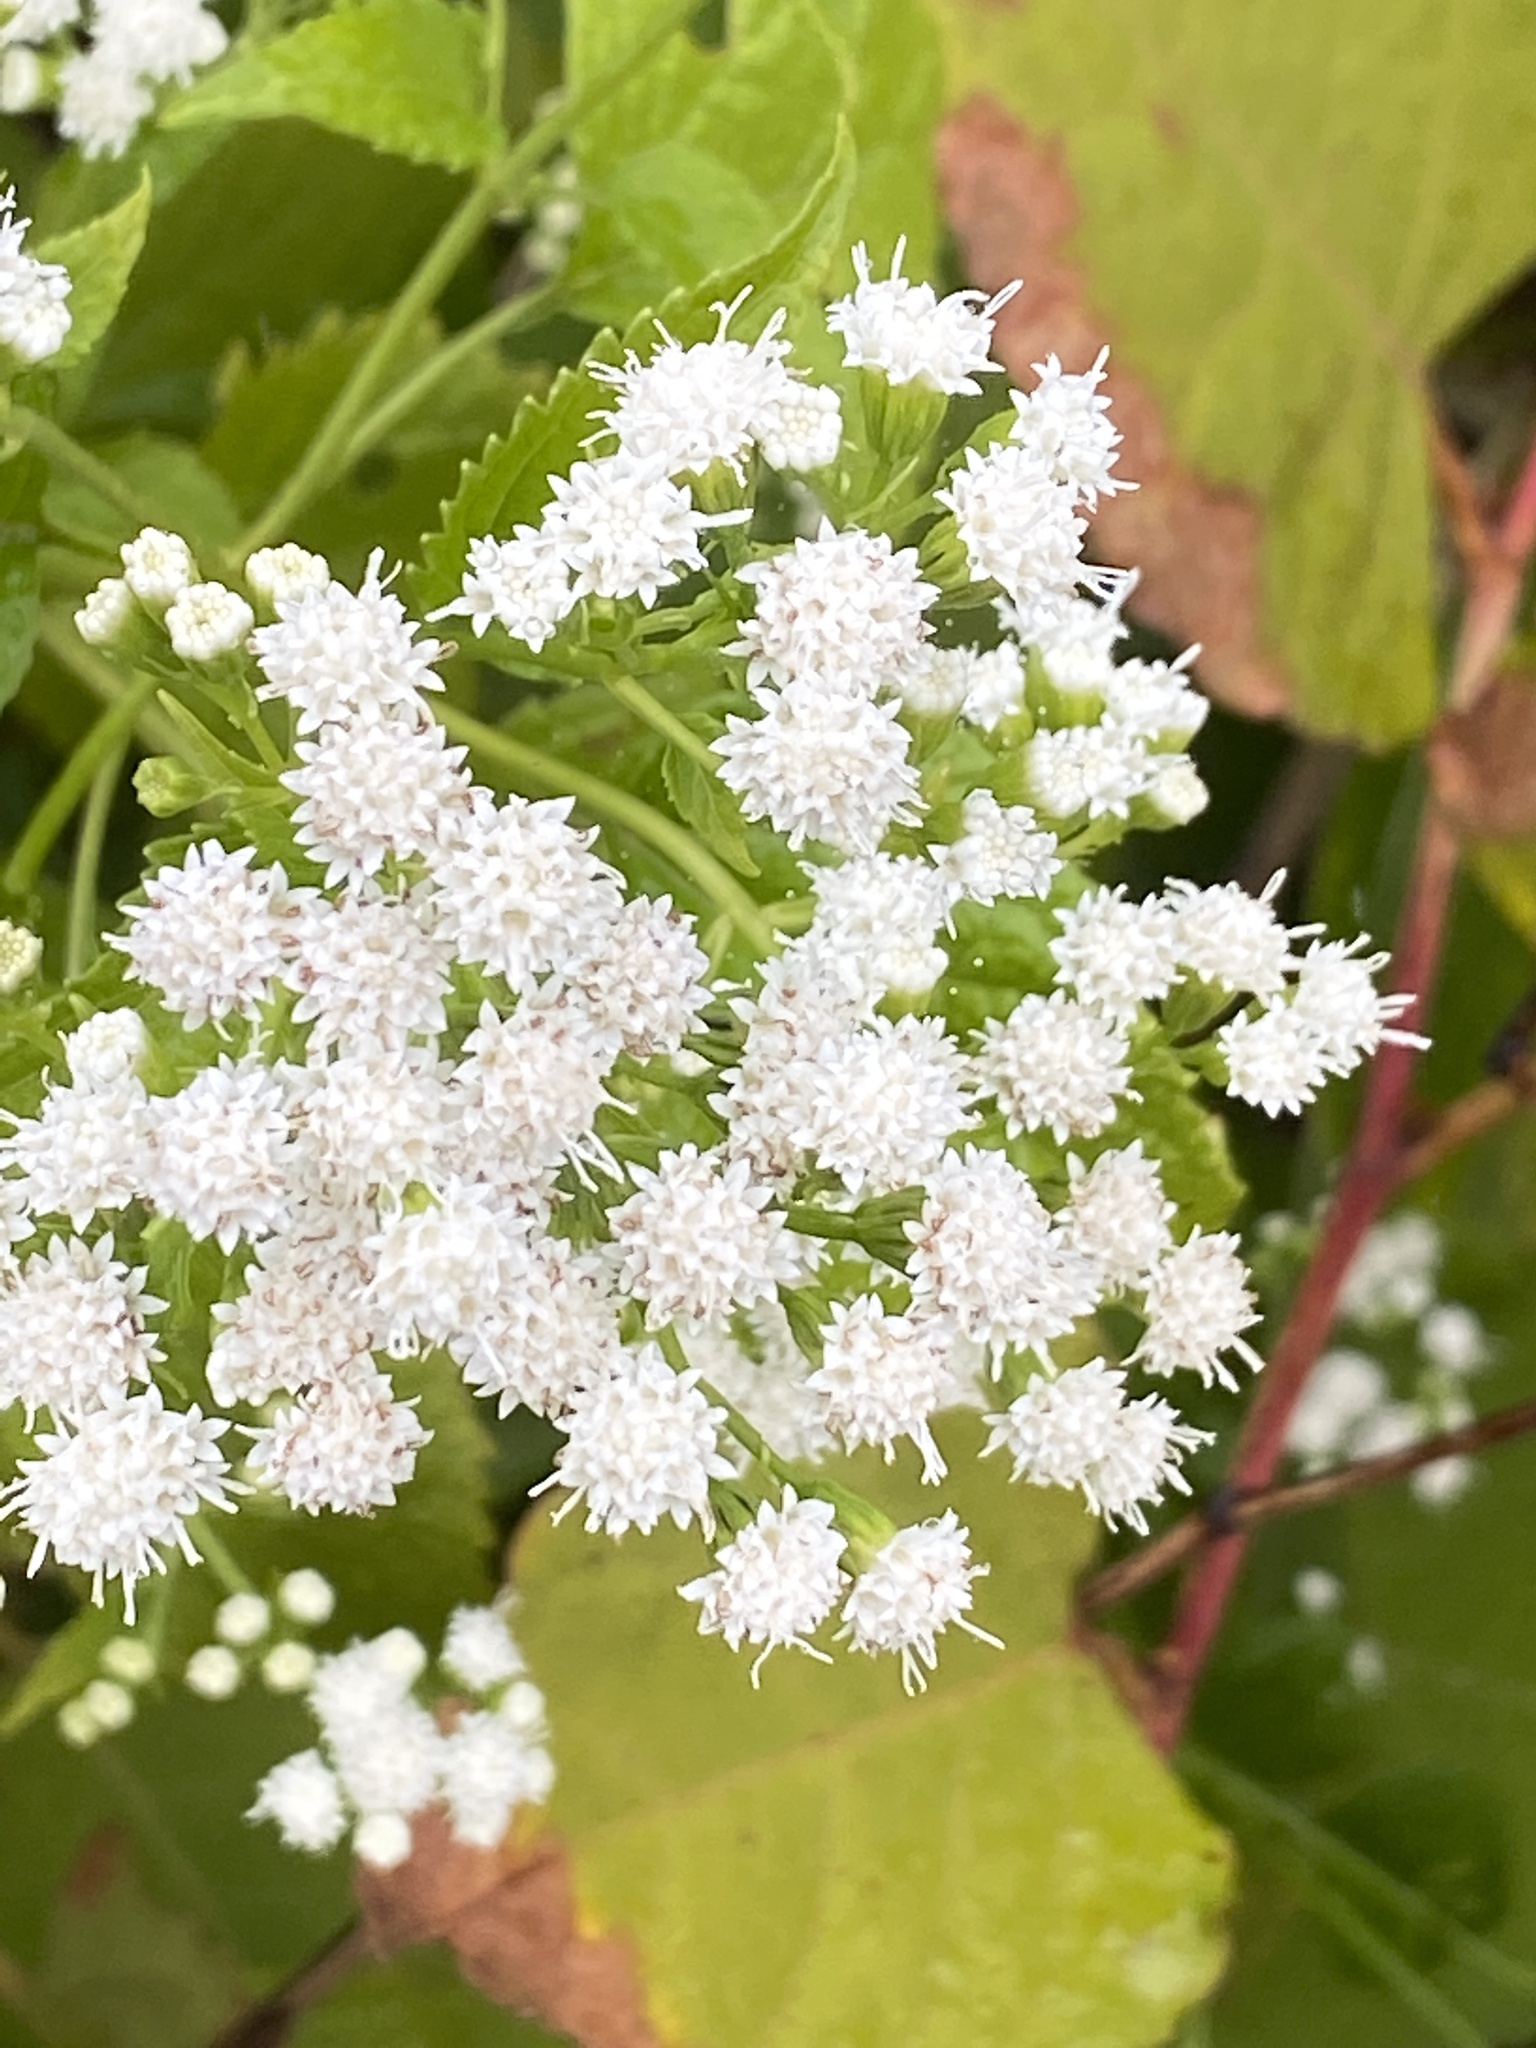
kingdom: Plantae
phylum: Tracheophyta
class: Magnoliopsida
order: Asterales
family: Asteraceae
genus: Ageratina
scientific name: Ageratina altissima
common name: White snakeroot
